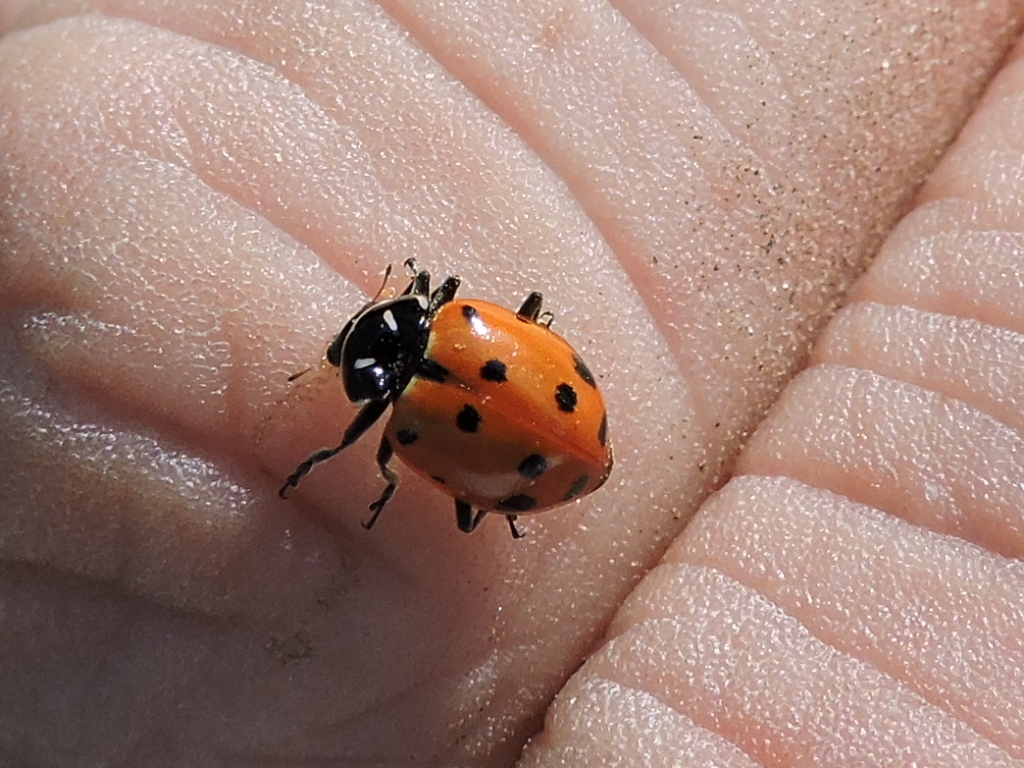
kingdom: Animalia
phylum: Arthropoda
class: Insecta
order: Coleoptera
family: Coccinellidae
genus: Hippodamia
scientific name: Hippodamia convergens
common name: Convergent lady beetle
